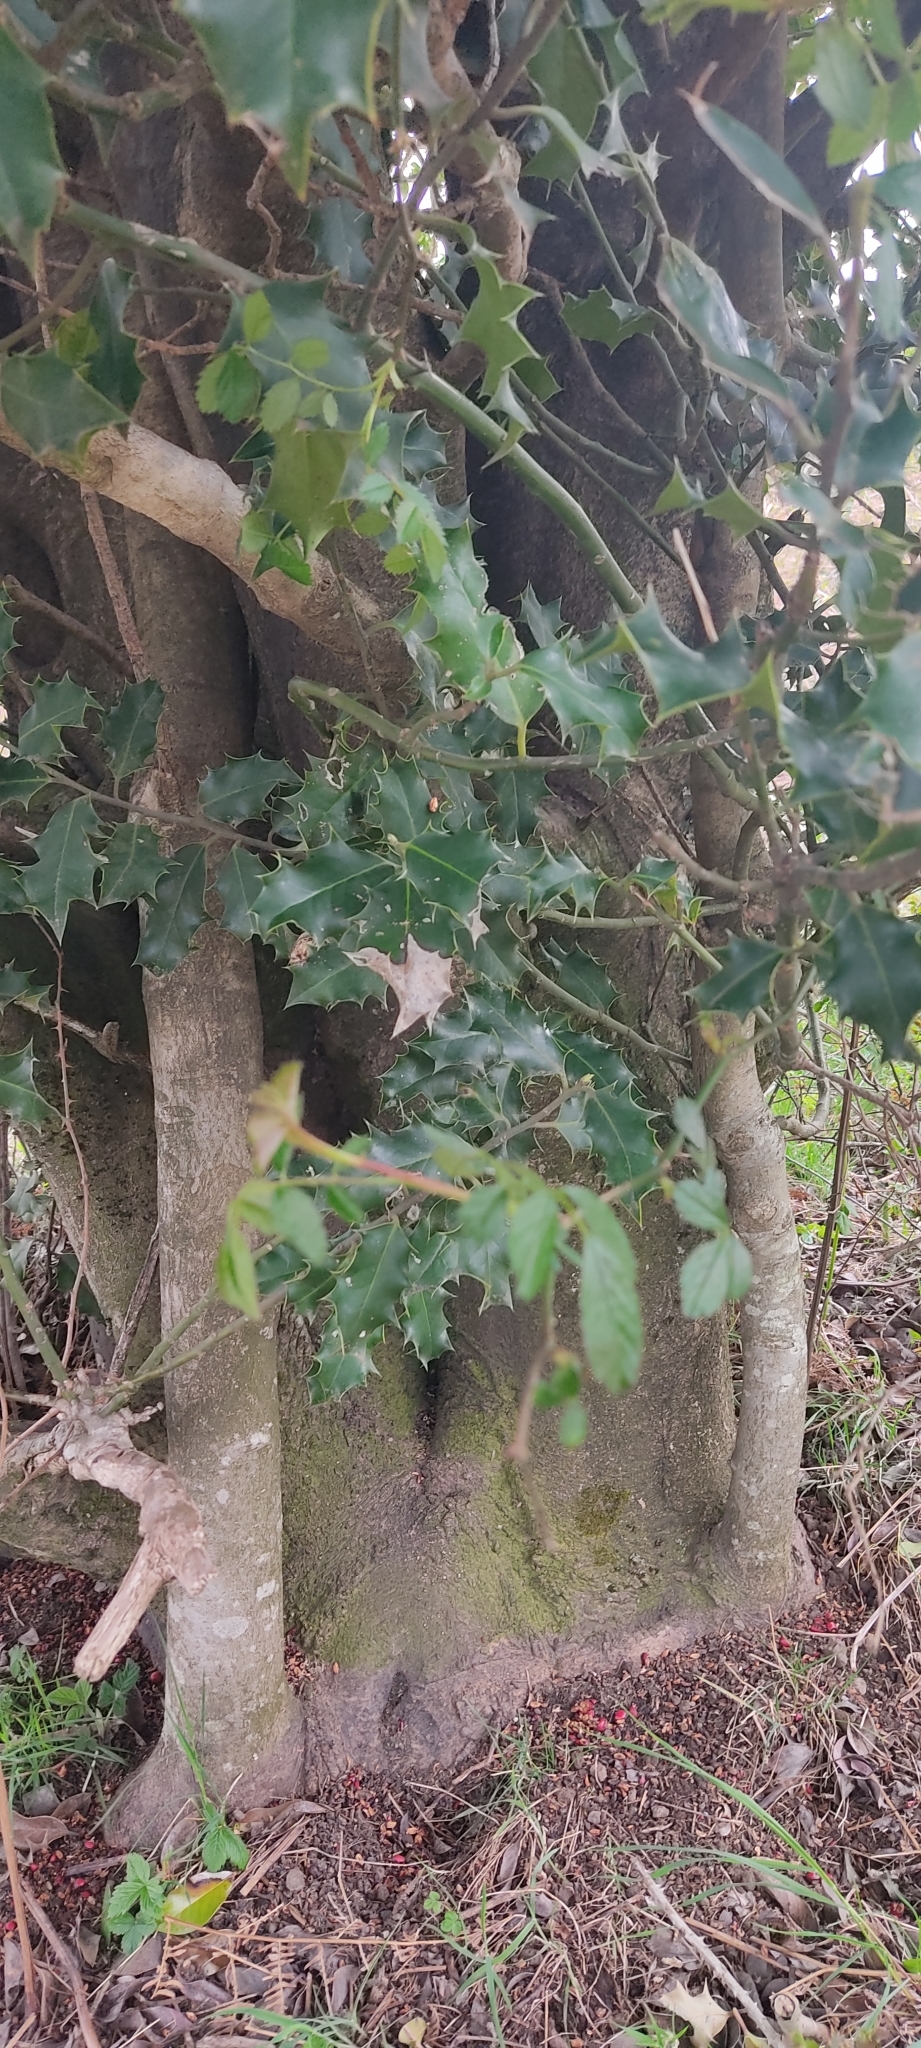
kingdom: Plantae
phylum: Tracheophyta
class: Magnoliopsida
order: Aquifoliales
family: Aquifoliaceae
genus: Ilex
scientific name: Ilex aquifolium
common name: English holly
